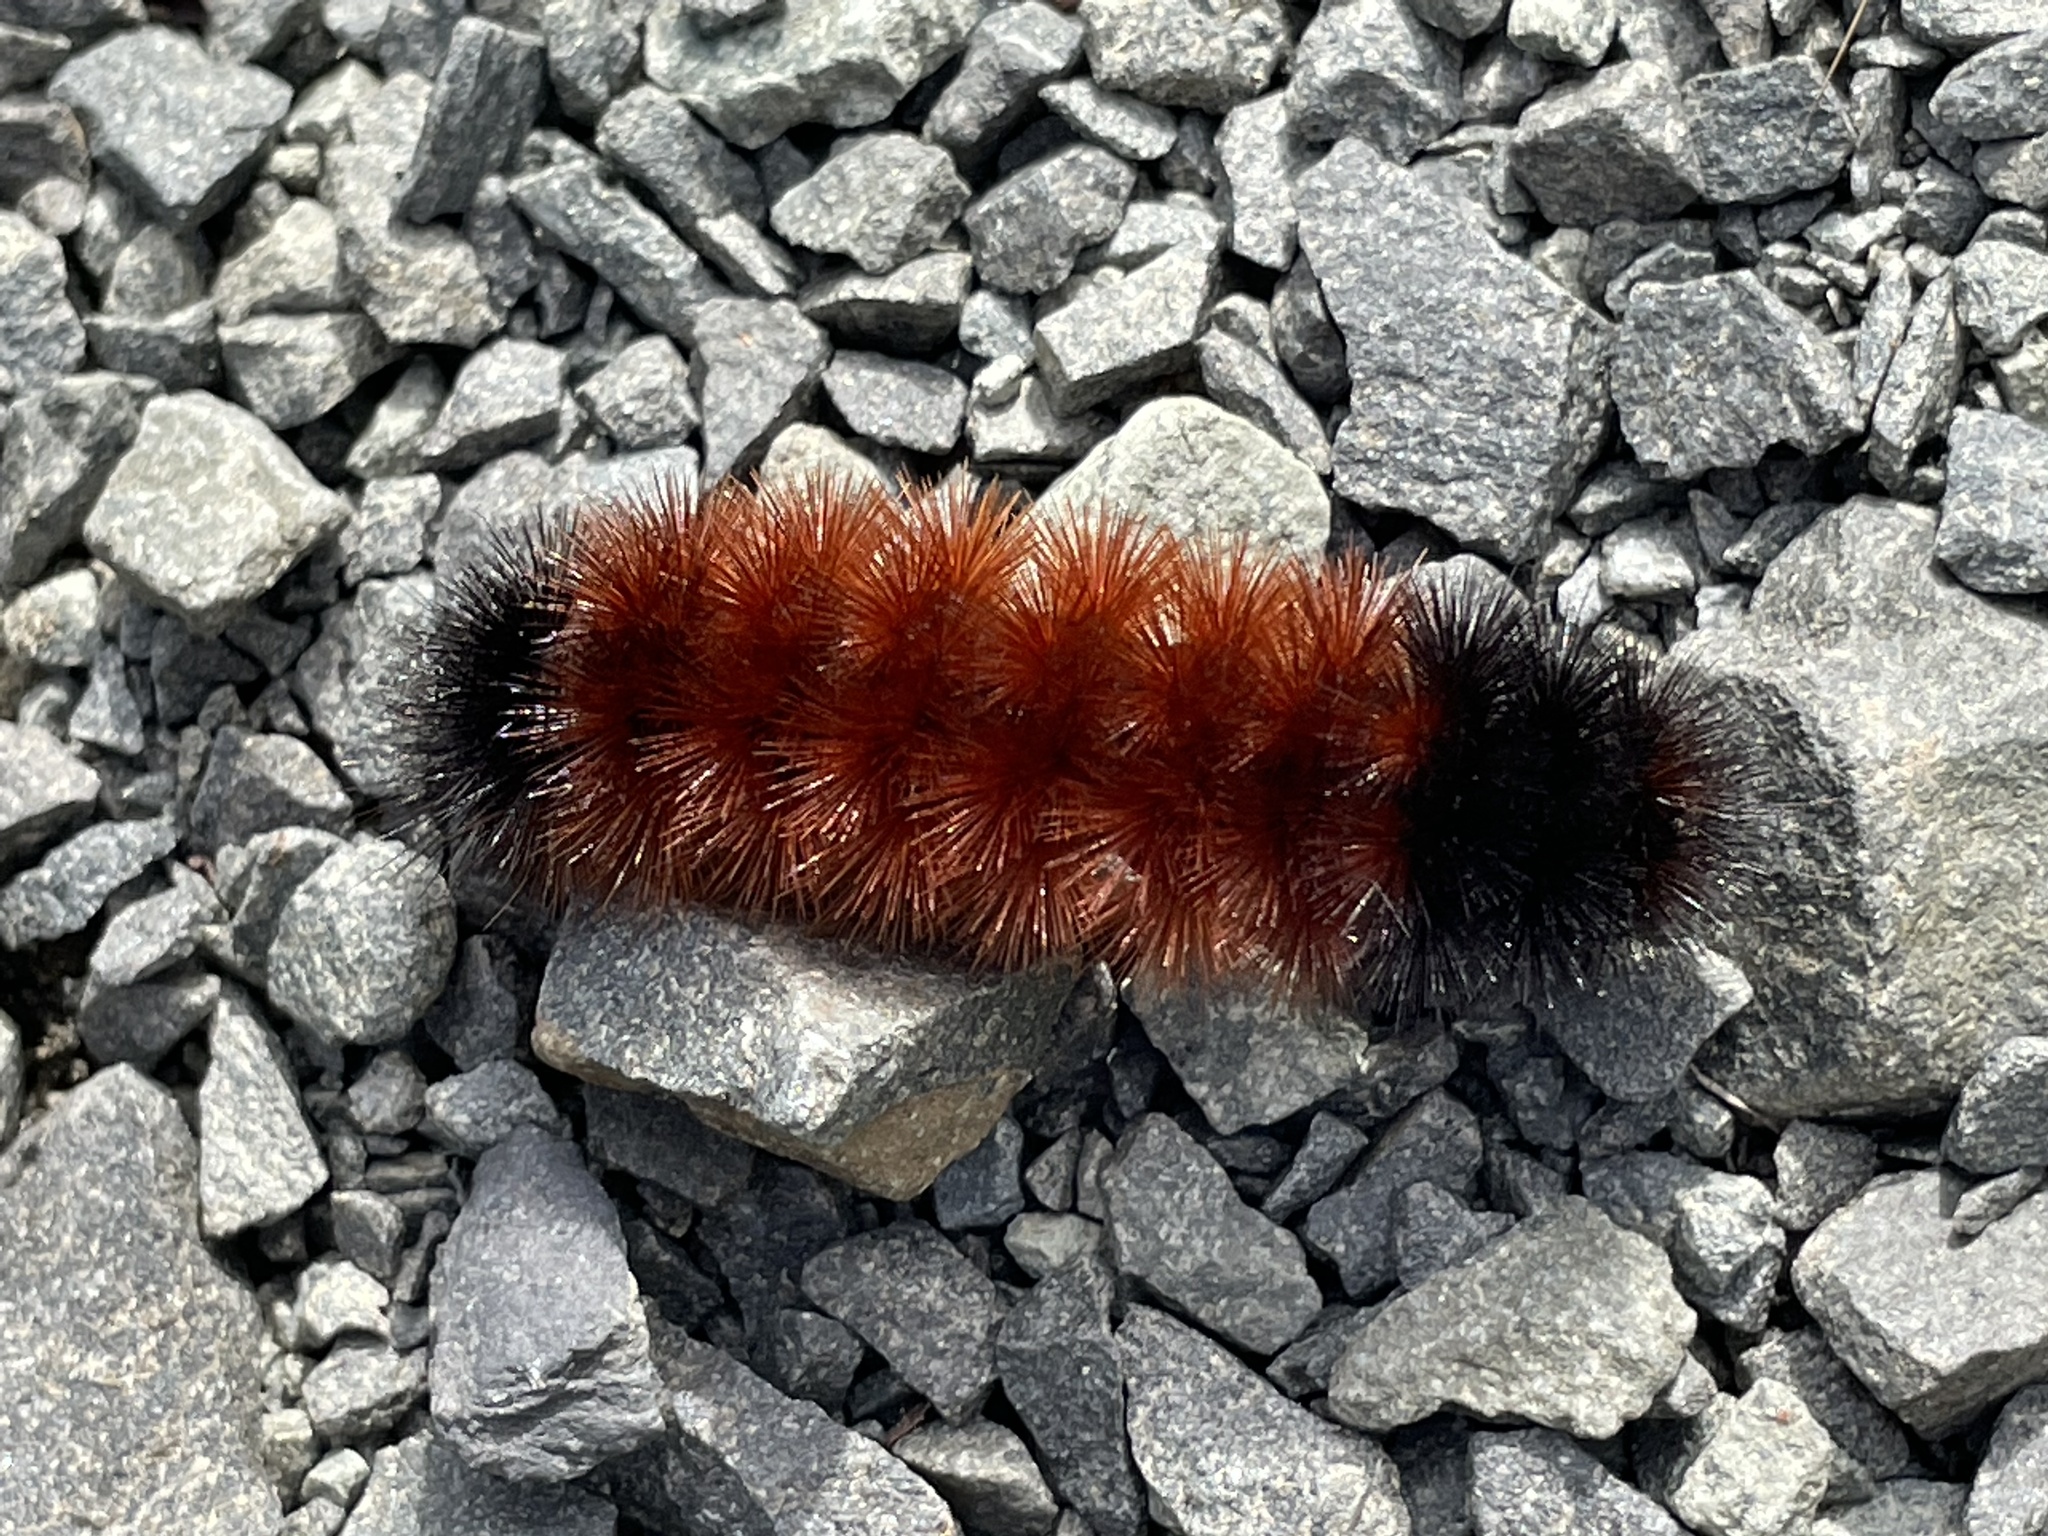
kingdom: Animalia
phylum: Arthropoda
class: Insecta
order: Lepidoptera
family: Erebidae
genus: Pyrrharctia
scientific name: Pyrrharctia isabella
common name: Isabella tiger moth
